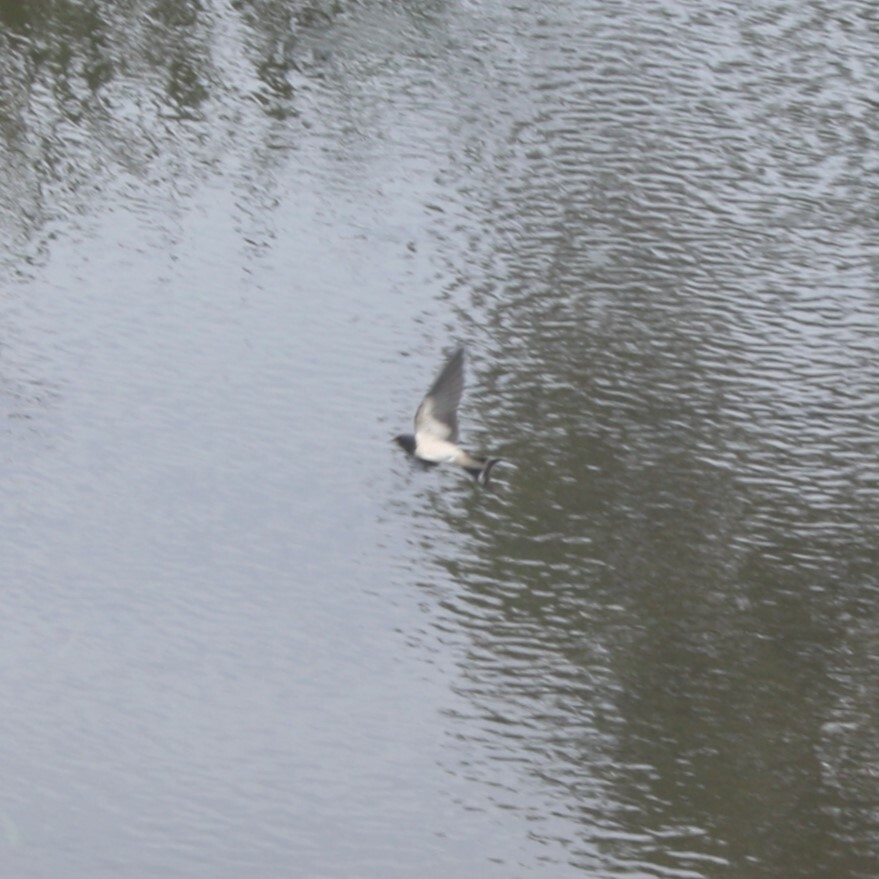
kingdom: Animalia
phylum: Chordata
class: Aves
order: Passeriformes
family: Hirundinidae
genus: Hirundo
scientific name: Hirundo rustica
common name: Barn swallow
